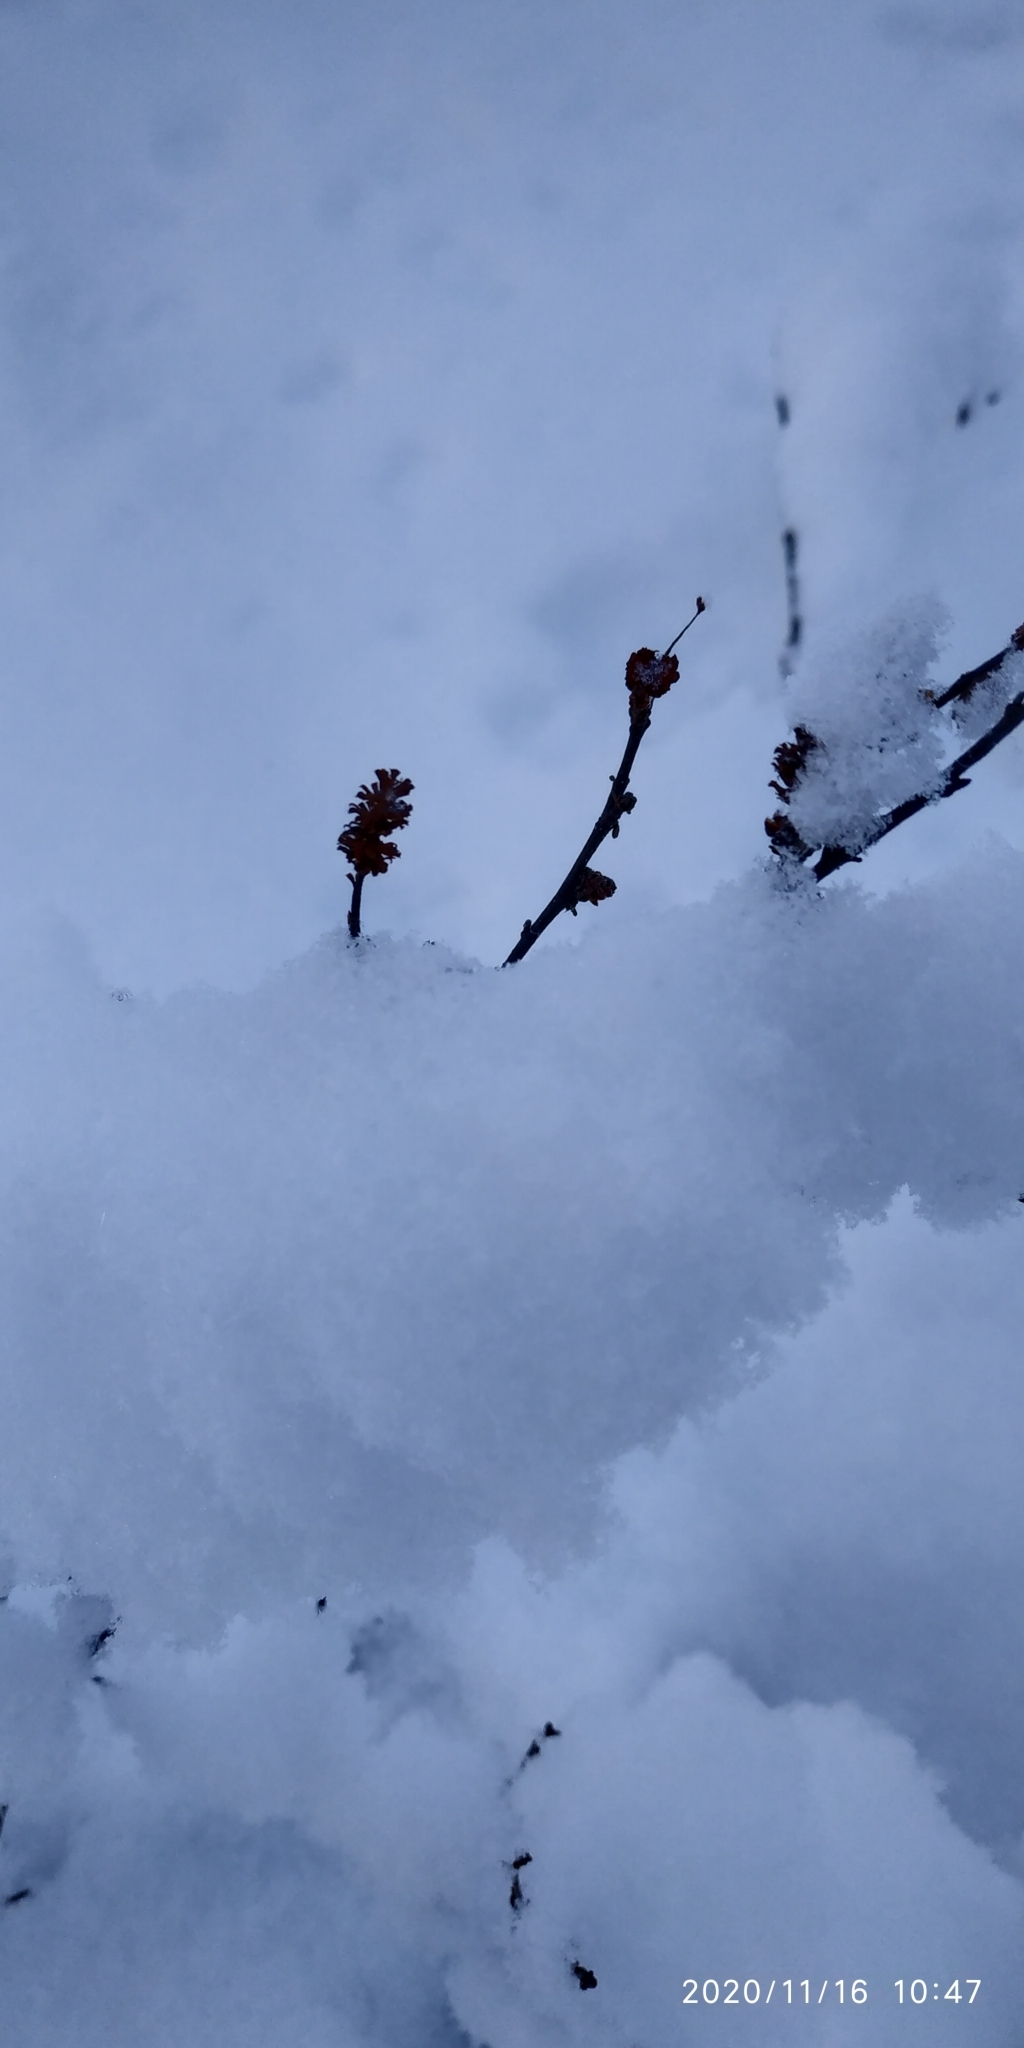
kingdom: Plantae
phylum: Tracheophyta
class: Magnoliopsida
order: Fagales
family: Betulaceae
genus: Betula
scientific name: Betula nana
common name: Arctic dwarf birch
